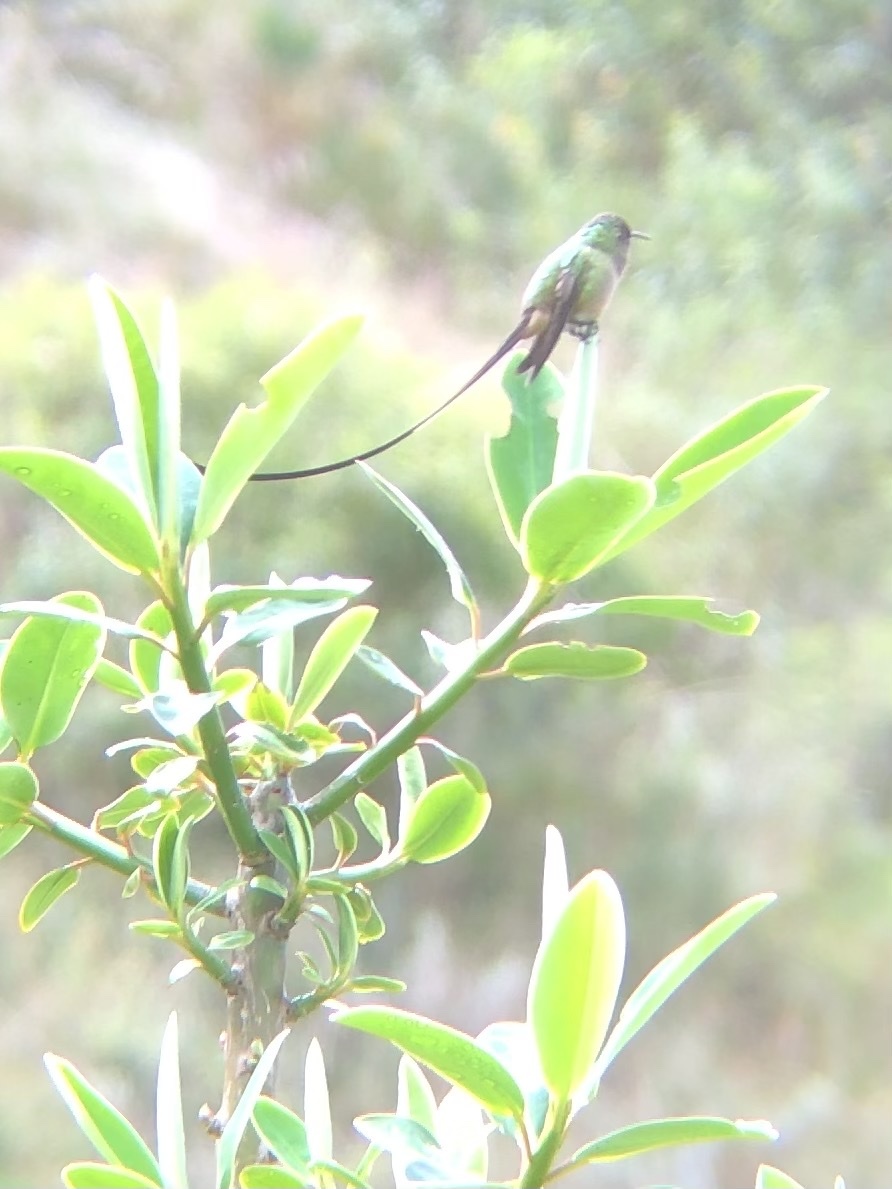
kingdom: Animalia
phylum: Chordata
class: Aves
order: Apodiformes
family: Trochilidae
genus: Lesbia
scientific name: Lesbia victoriae
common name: Black-tailed trainbearer
